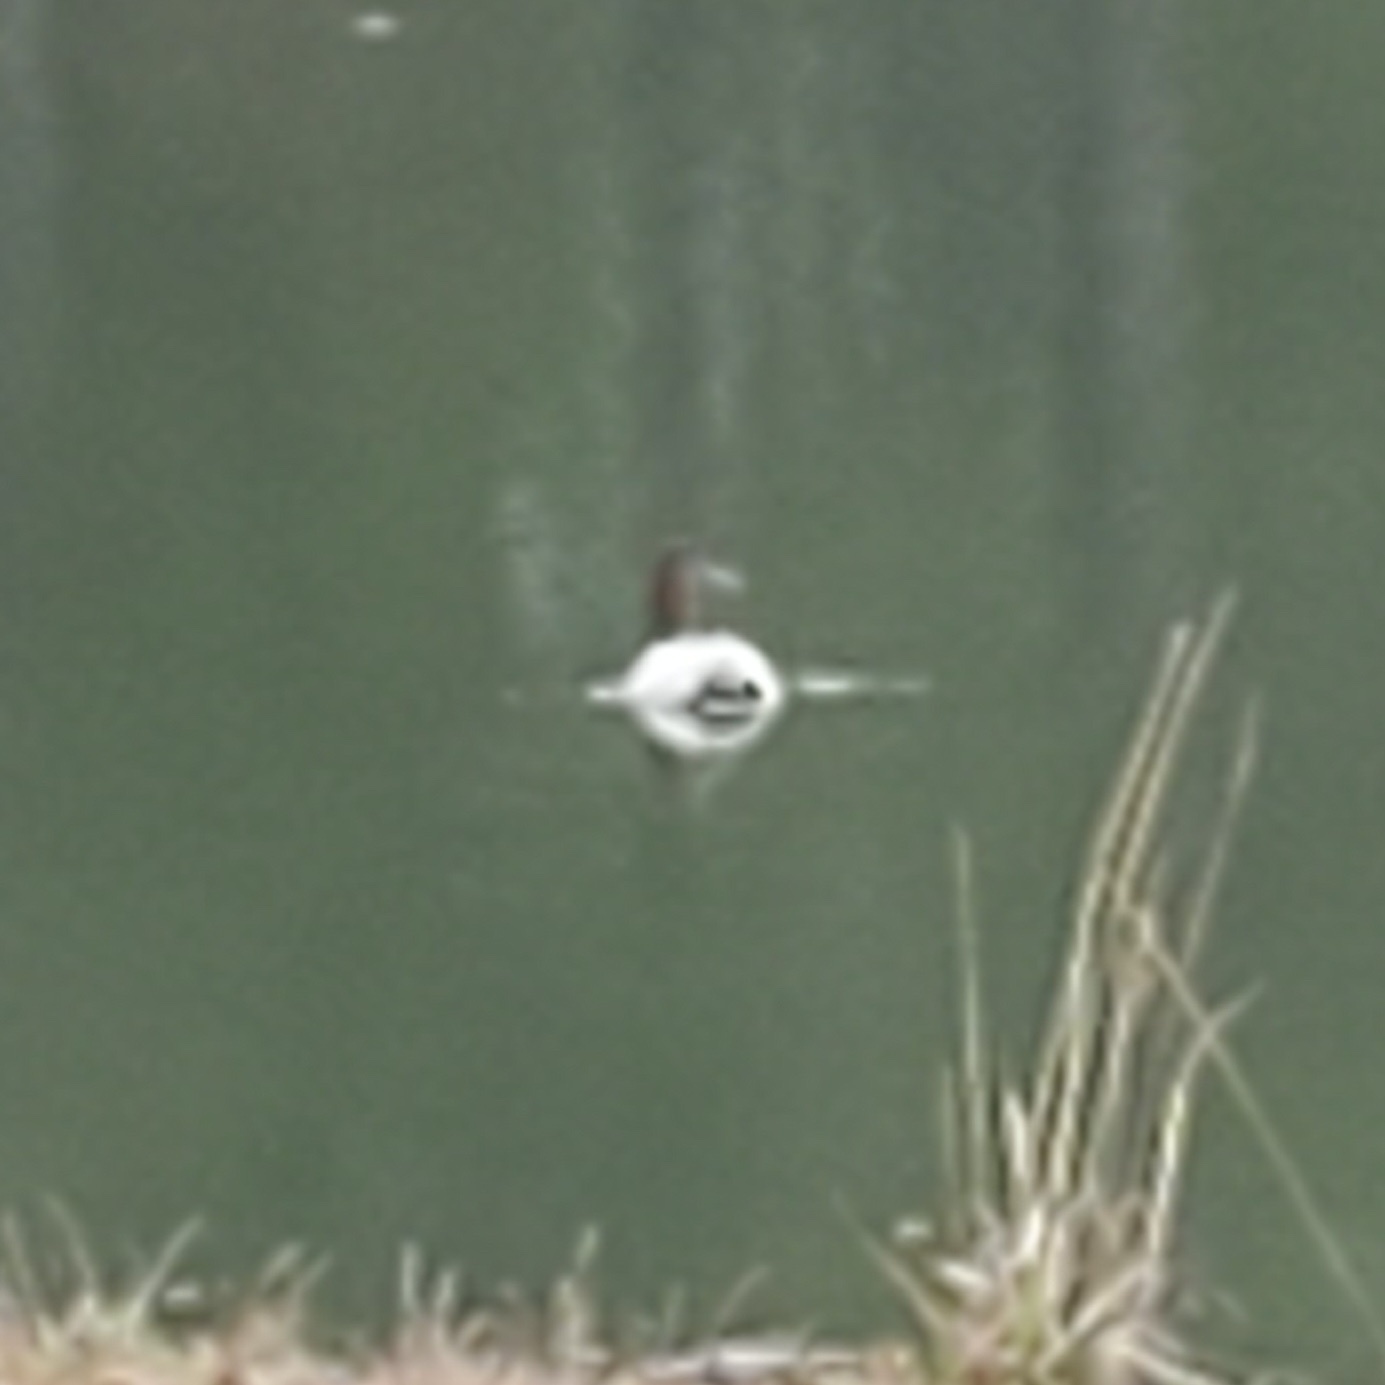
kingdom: Animalia
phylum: Chordata
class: Aves
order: Anseriformes
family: Anatidae
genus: Aythya
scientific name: Aythya valisineria
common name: Canvasback
